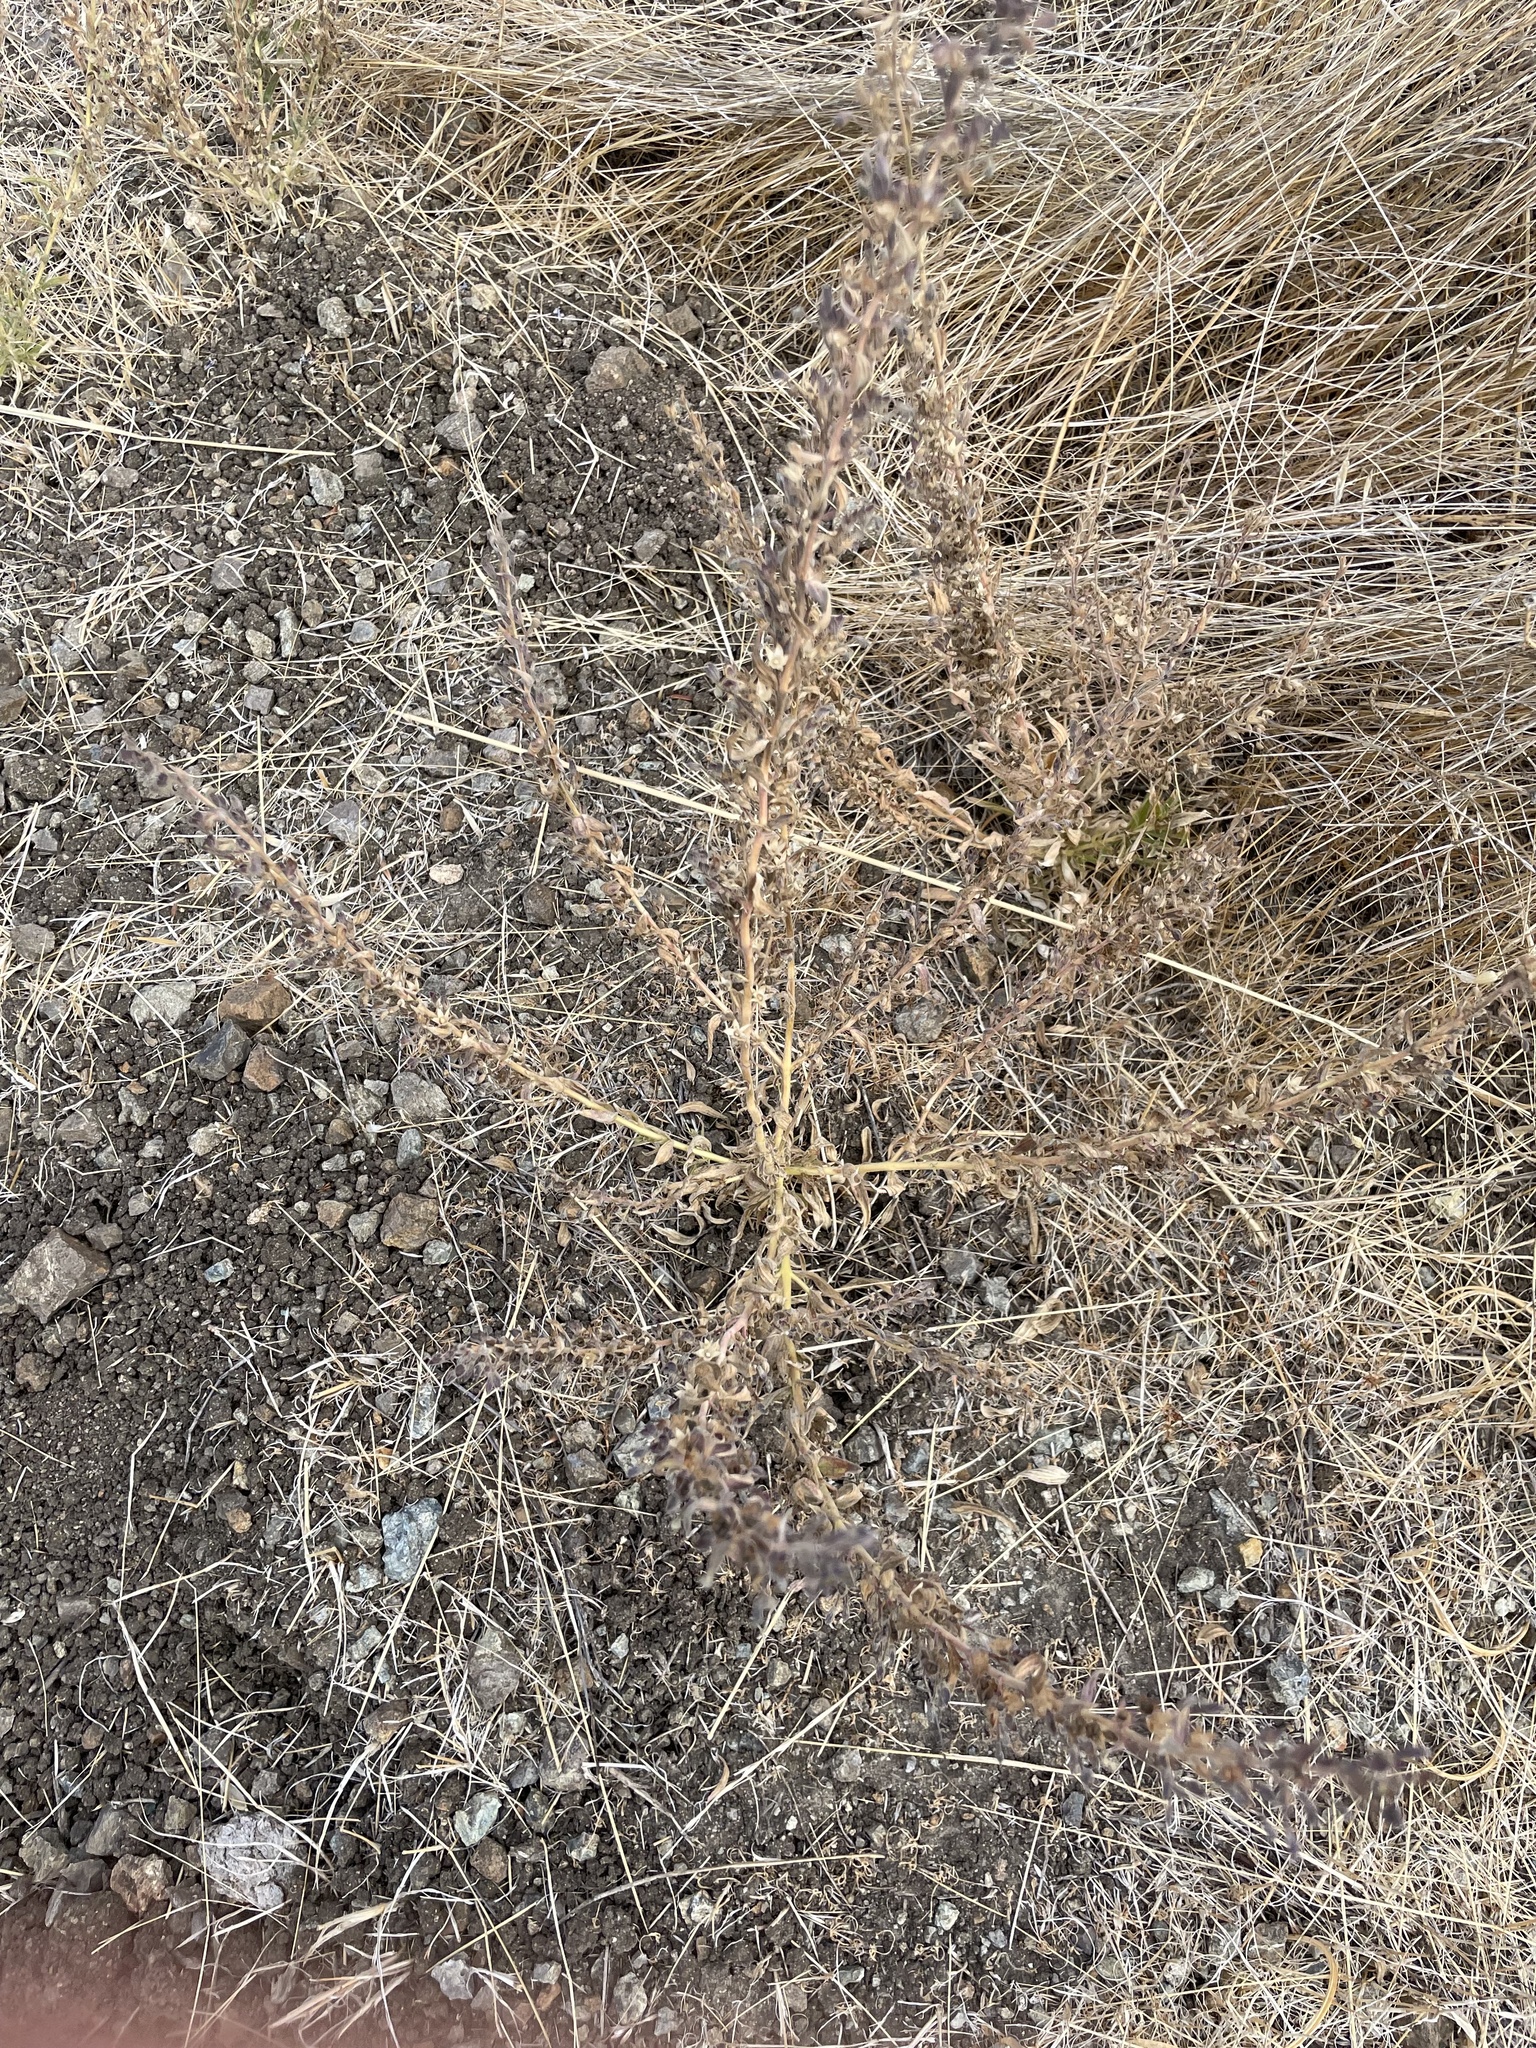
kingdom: Plantae
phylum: Tracheophyta
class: Magnoliopsida
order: Lamiales
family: Lamiaceae
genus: Trichostema
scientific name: Trichostema lanceolatum
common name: Vinegar-weed
